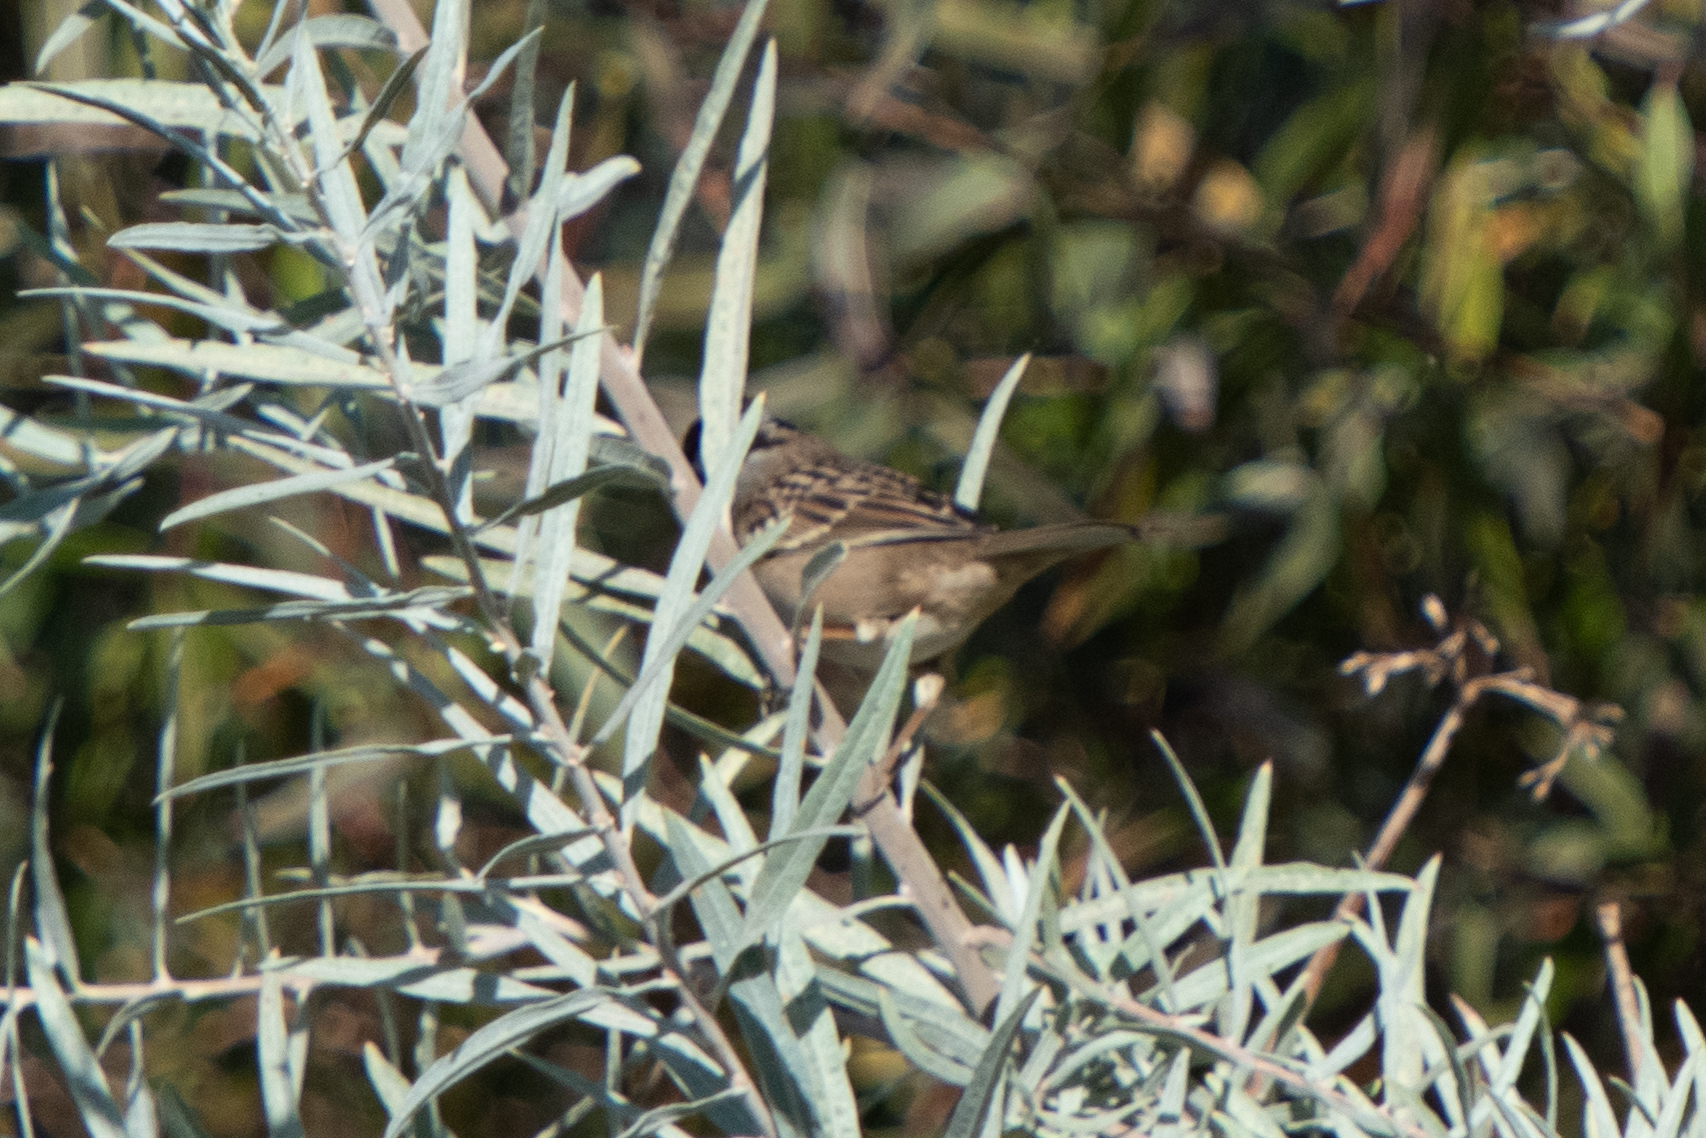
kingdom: Animalia
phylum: Chordata
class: Aves
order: Passeriformes
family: Passerellidae
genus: Zonotrichia
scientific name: Zonotrichia leucophrys
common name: White-crowned sparrow
